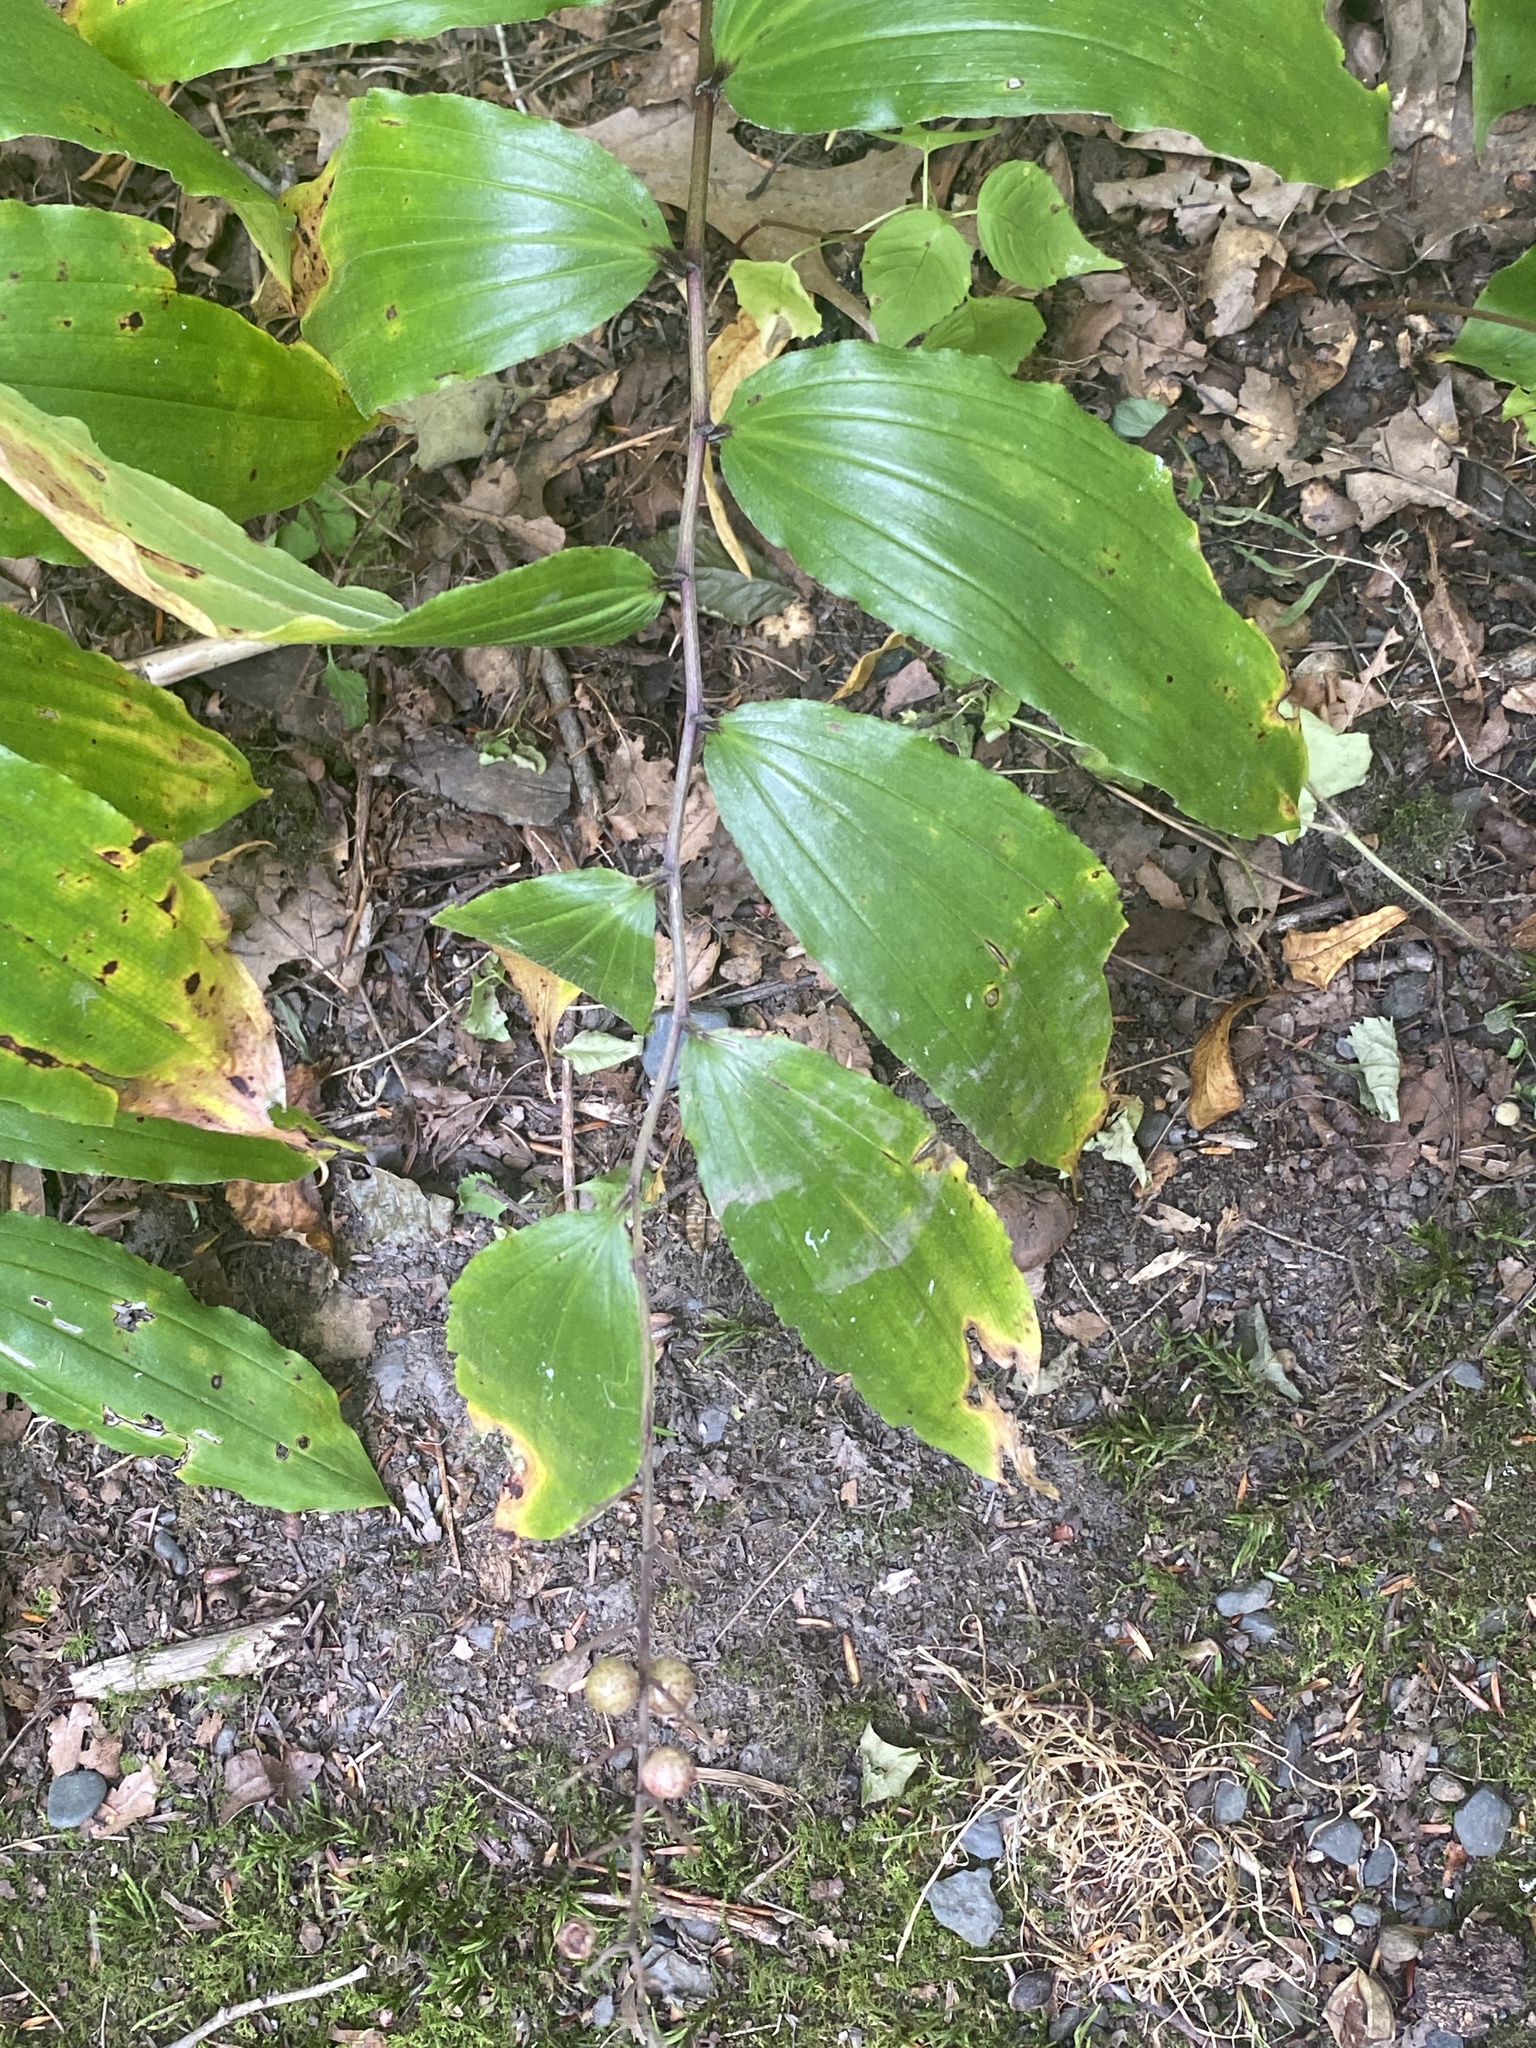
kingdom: Plantae
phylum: Tracheophyta
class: Liliopsida
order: Asparagales
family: Asparagaceae
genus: Maianthemum
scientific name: Maianthemum racemosum
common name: False spikenard
